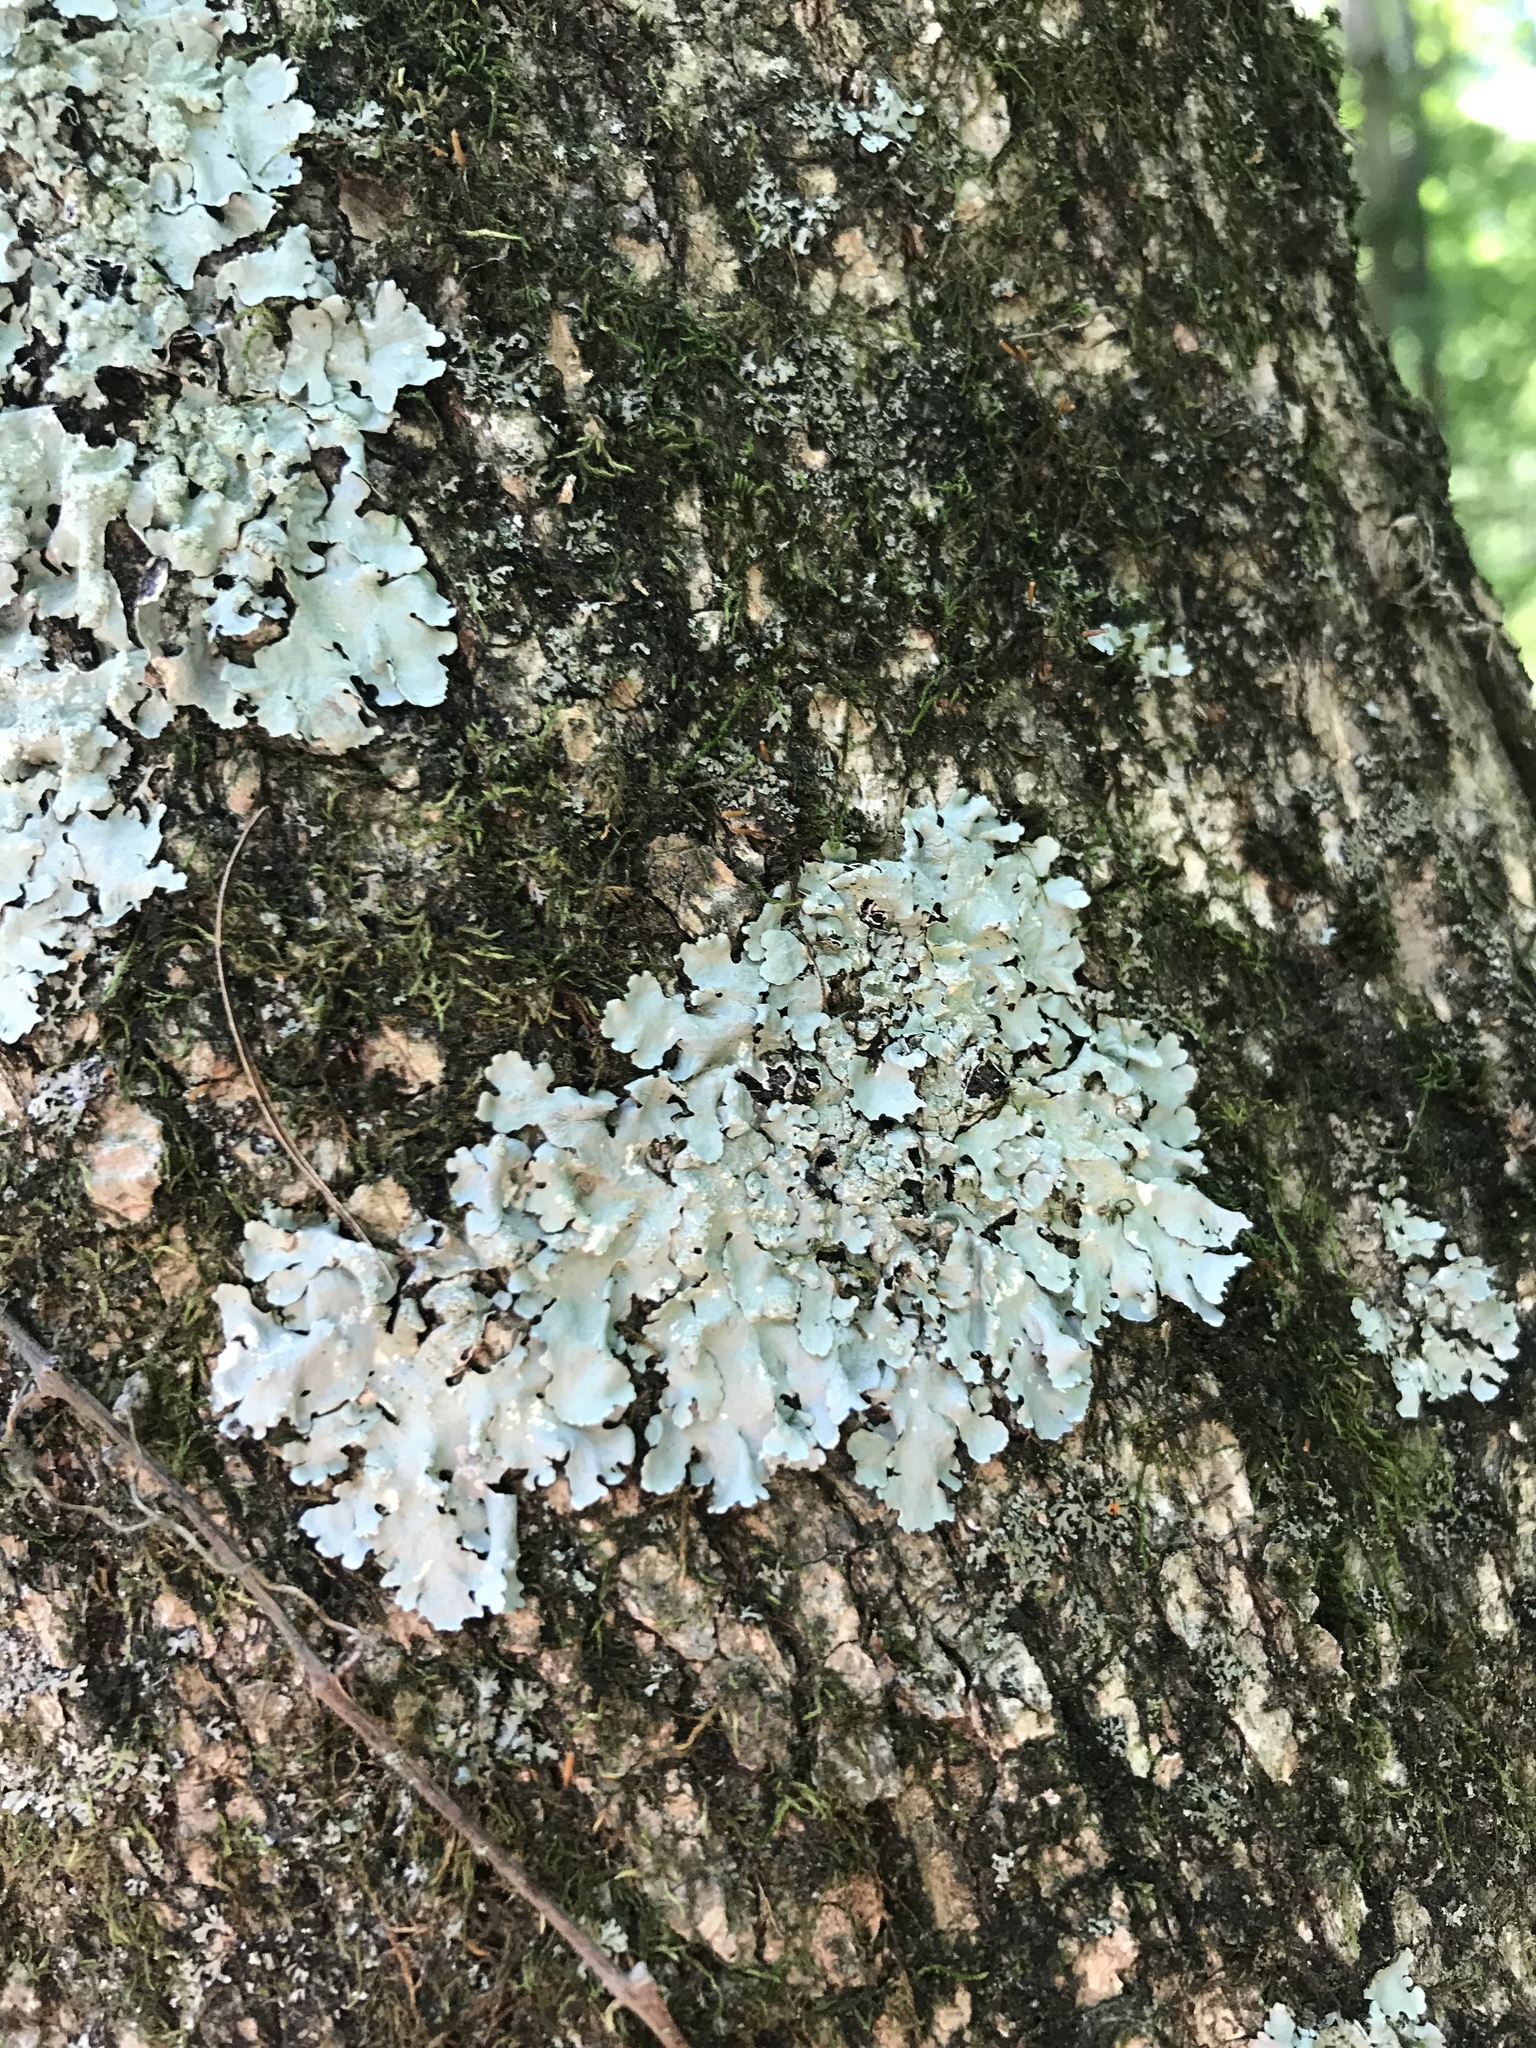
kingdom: Fungi
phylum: Ascomycota
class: Lecanoromycetes
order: Lecanorales
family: Parmeliaceae
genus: Myelochroa
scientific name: Myelochroa aurulenta
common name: Powdery axil-bristle lichen
